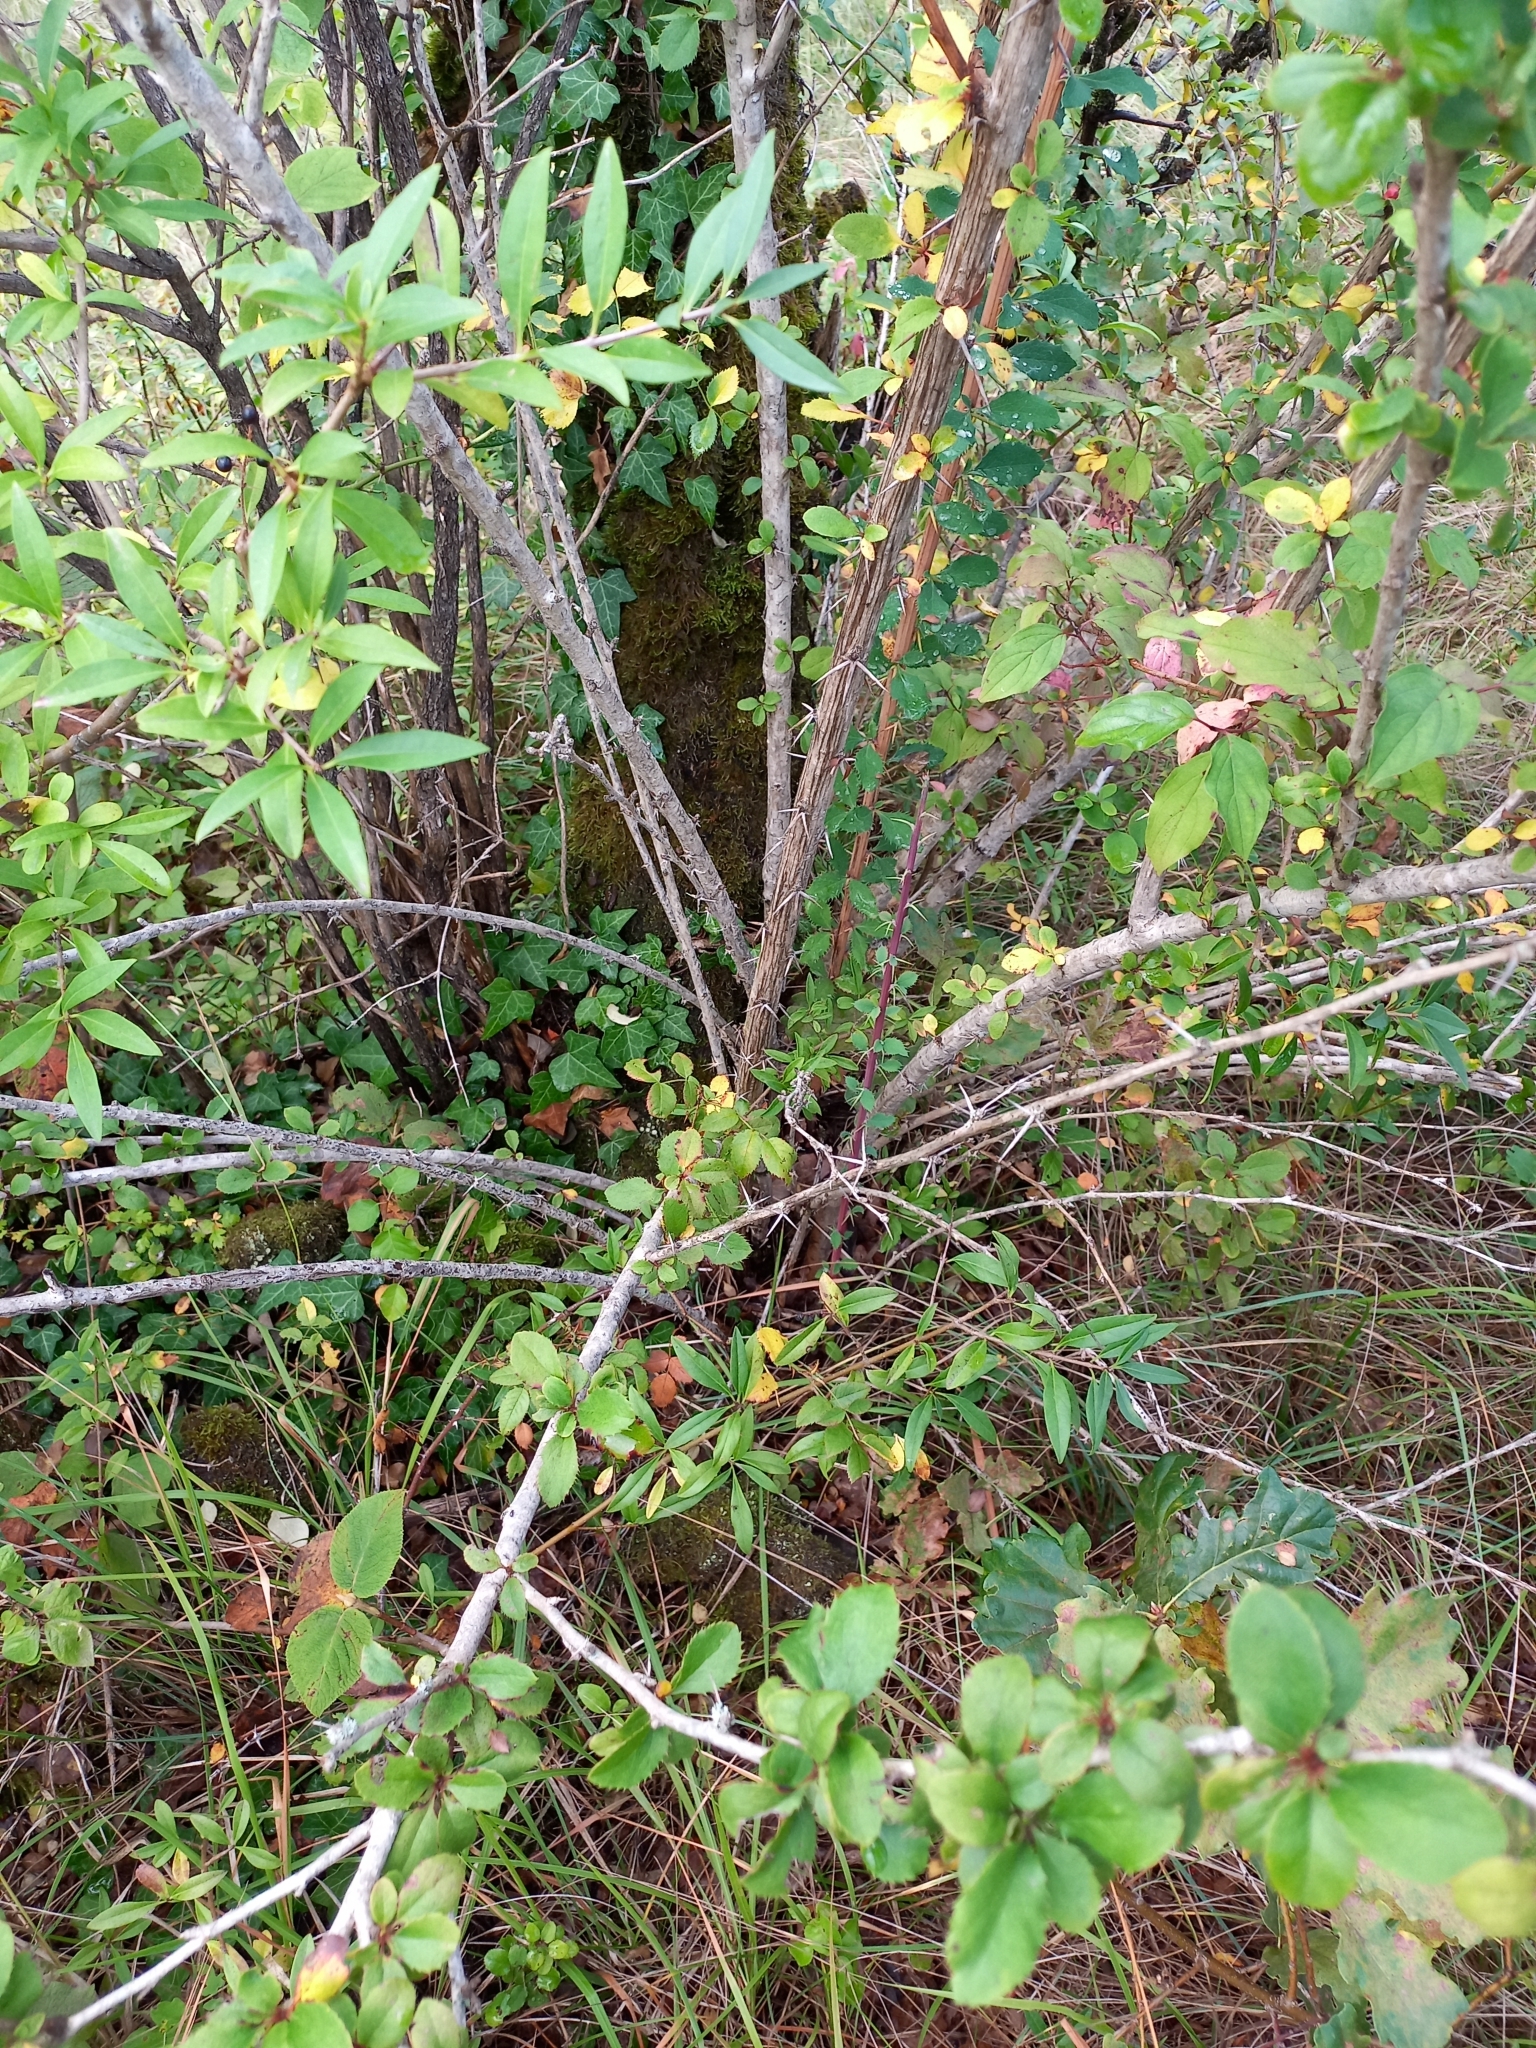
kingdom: Plantae
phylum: Tracheophyta
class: Magnoliopsida
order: Ranunculales
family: Berberidaceae
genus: Berberis
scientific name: Berberis vulgaris
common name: Barberry
